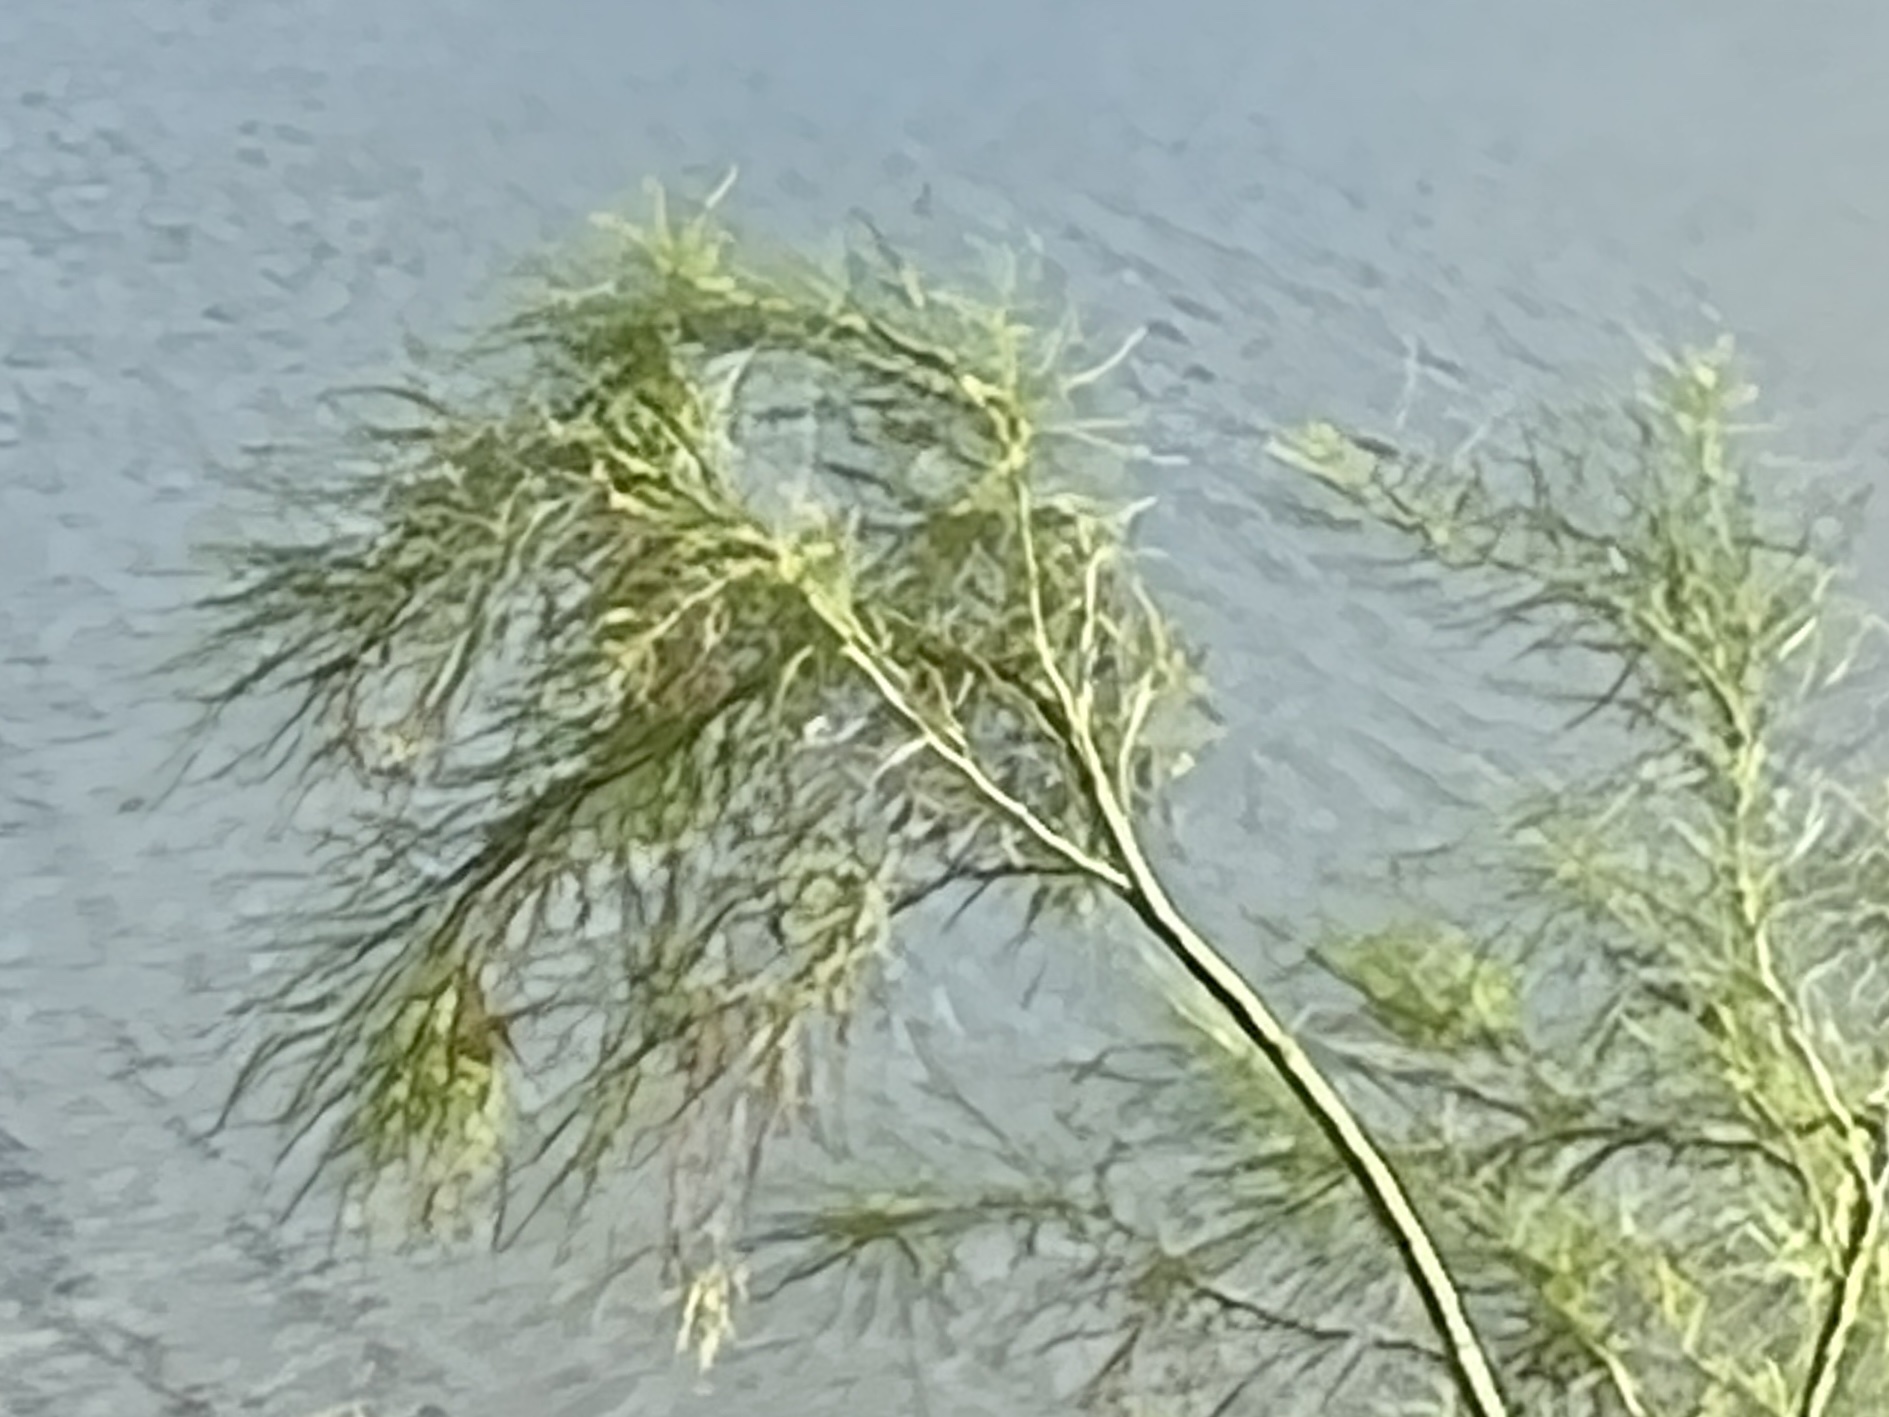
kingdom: Plantae
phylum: Tracheophyta
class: Magnoliopsida
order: Fabales
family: Fabaceae
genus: Parkinsonia
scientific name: Parkinsonia aculeata
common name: Jerusalem thorn
